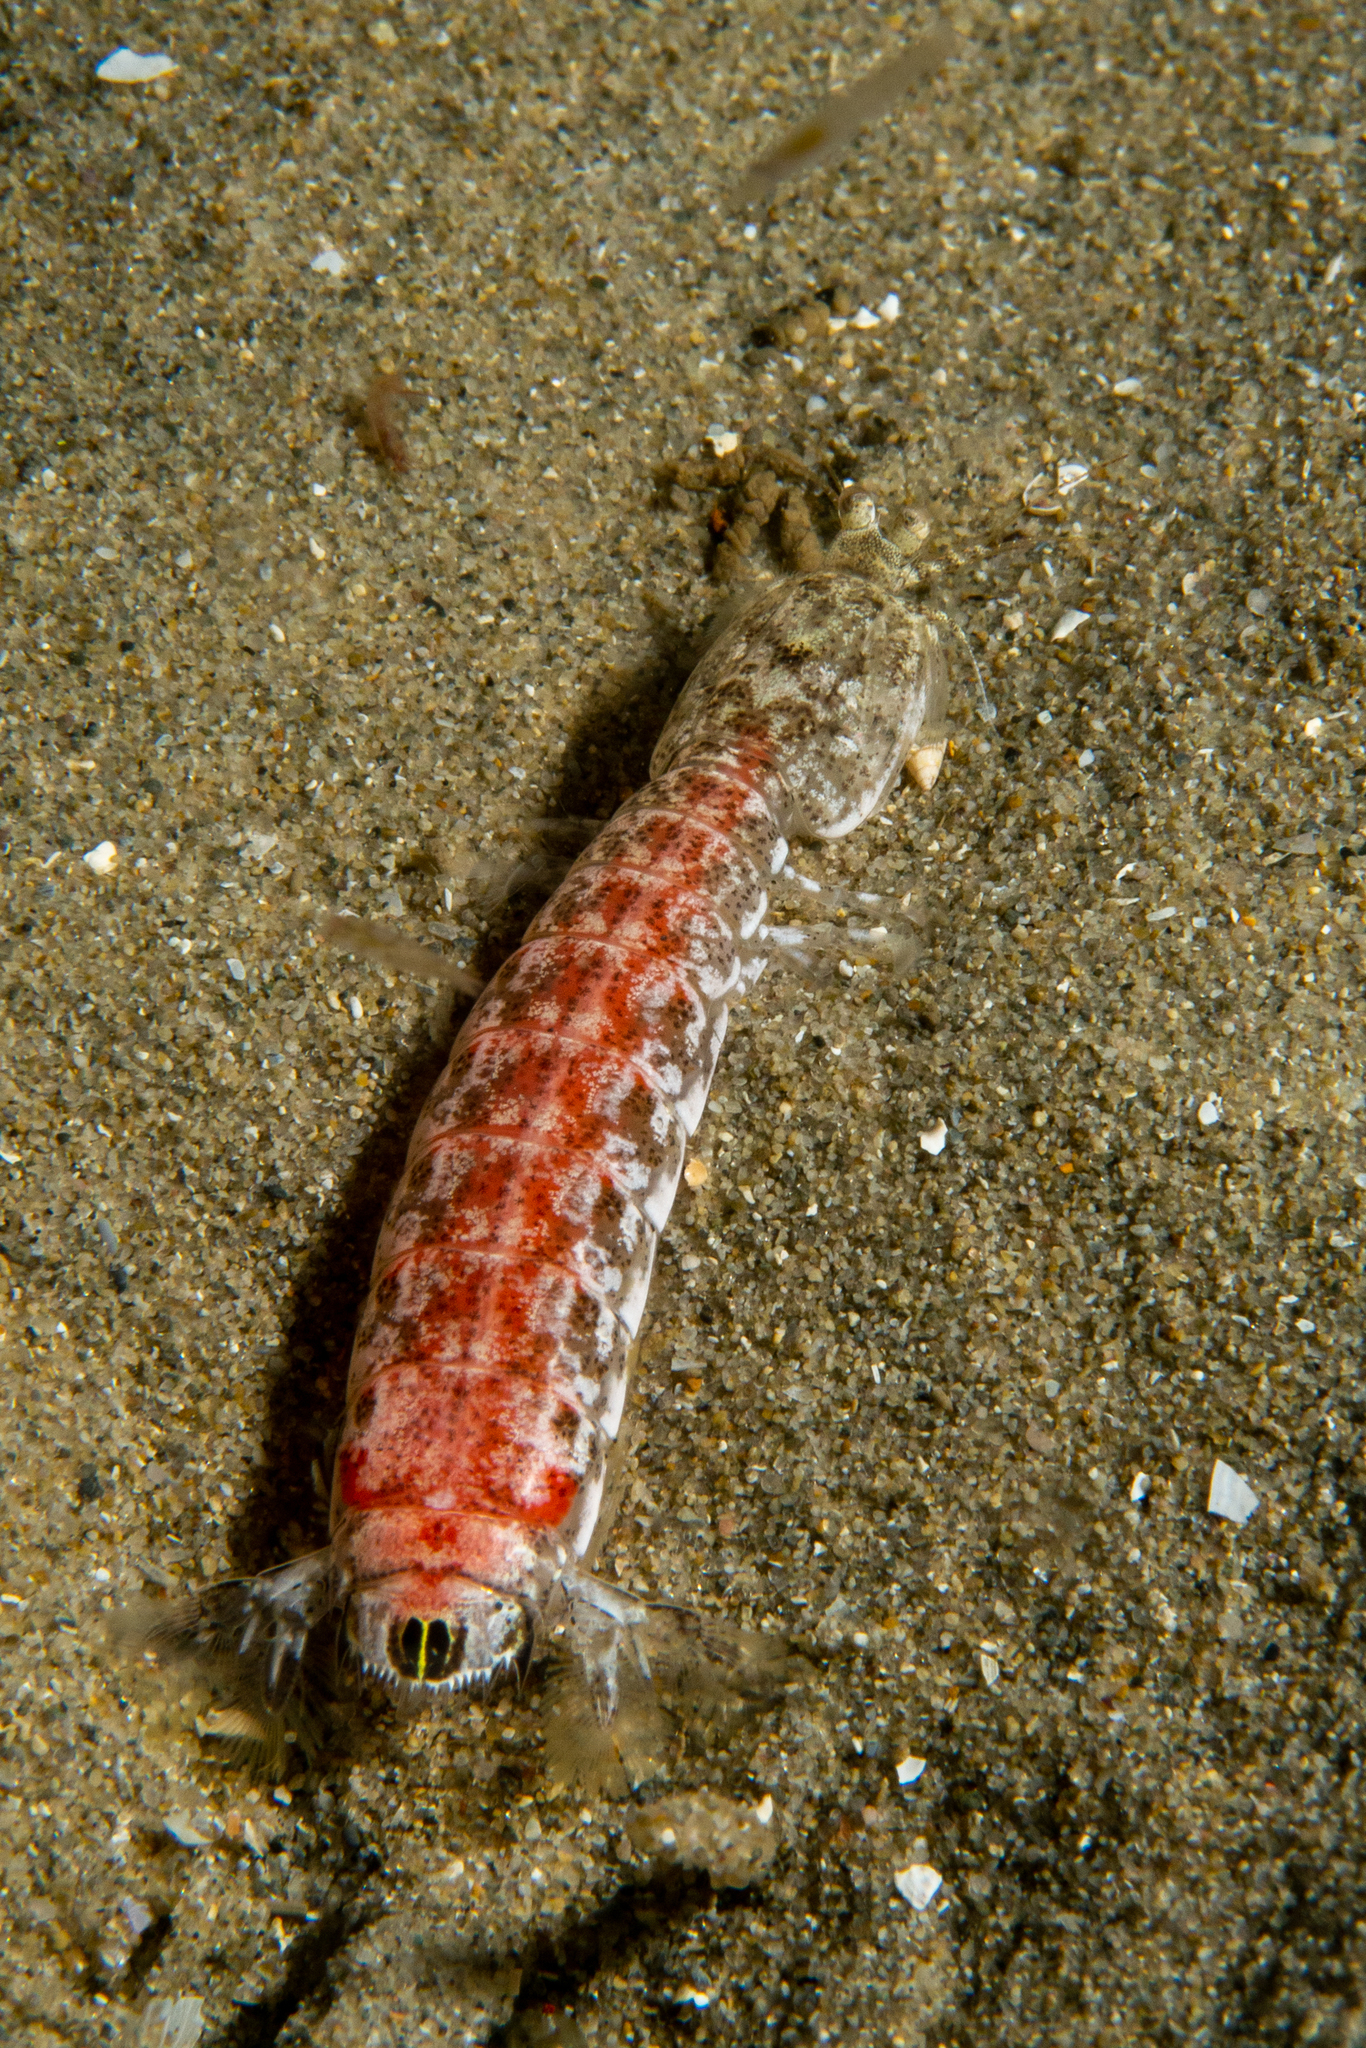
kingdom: Animalia
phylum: Arthropoda
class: Malacostraca
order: Stomatopoda
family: Nannosquillidae
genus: Austrosquilla
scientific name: Austrosquilla osculans
